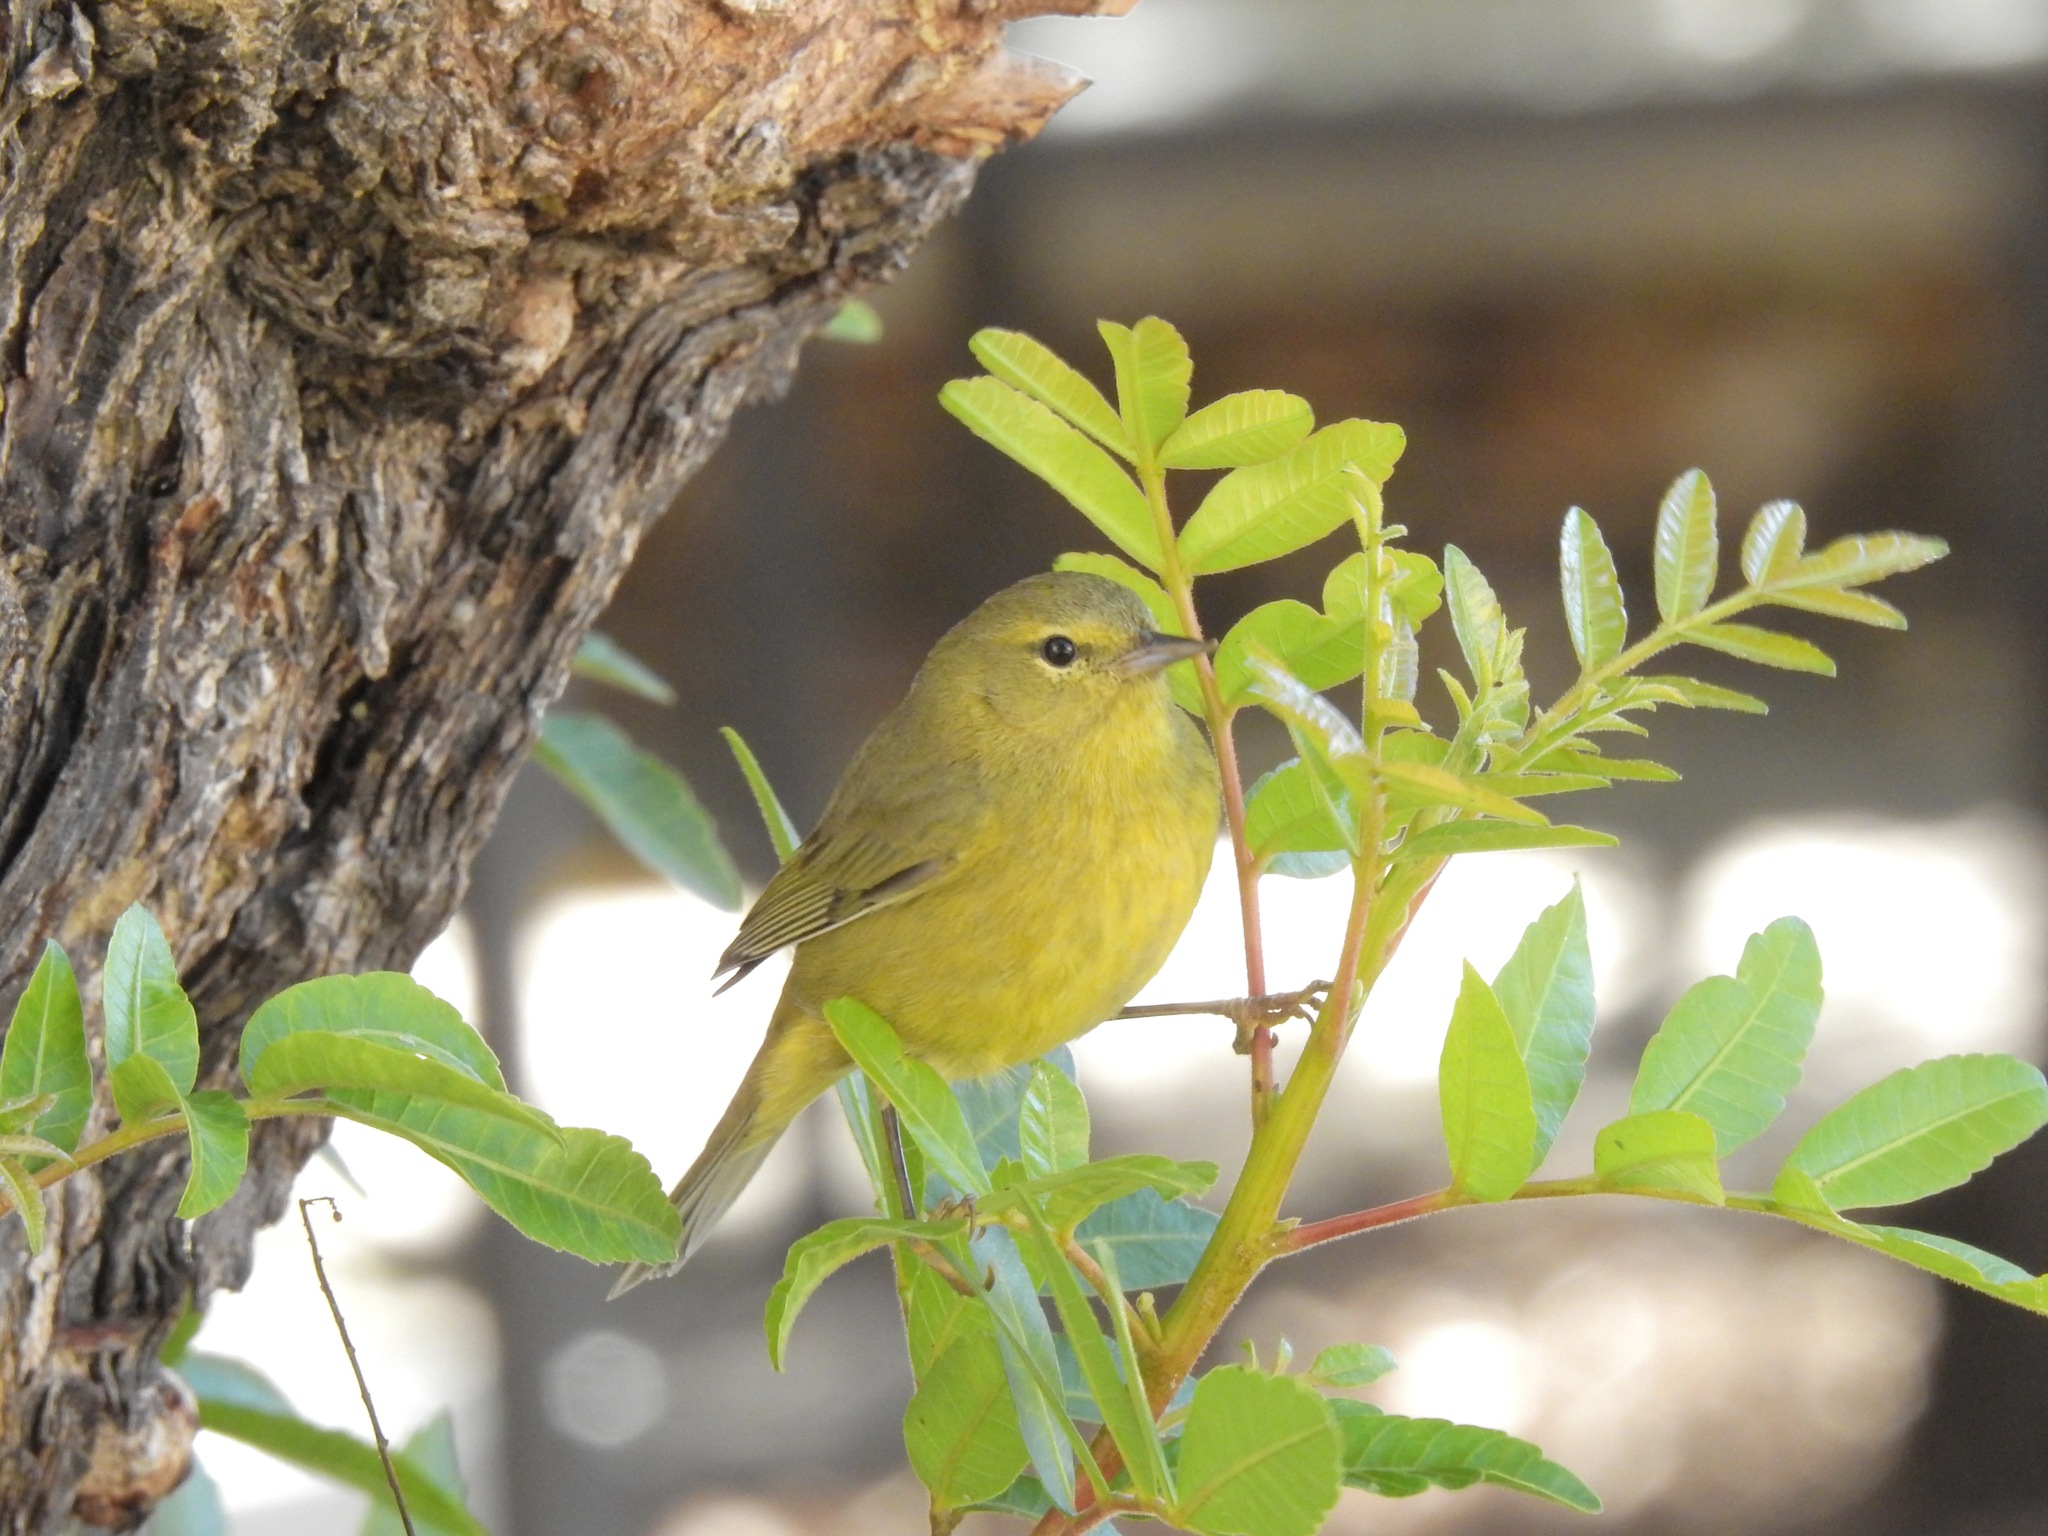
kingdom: Animalia
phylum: Chordata
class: Aves
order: Passeriformes
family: Parulidae
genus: Leiothlypis
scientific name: Leiothlypis celata
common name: Orange-crowned warbler
